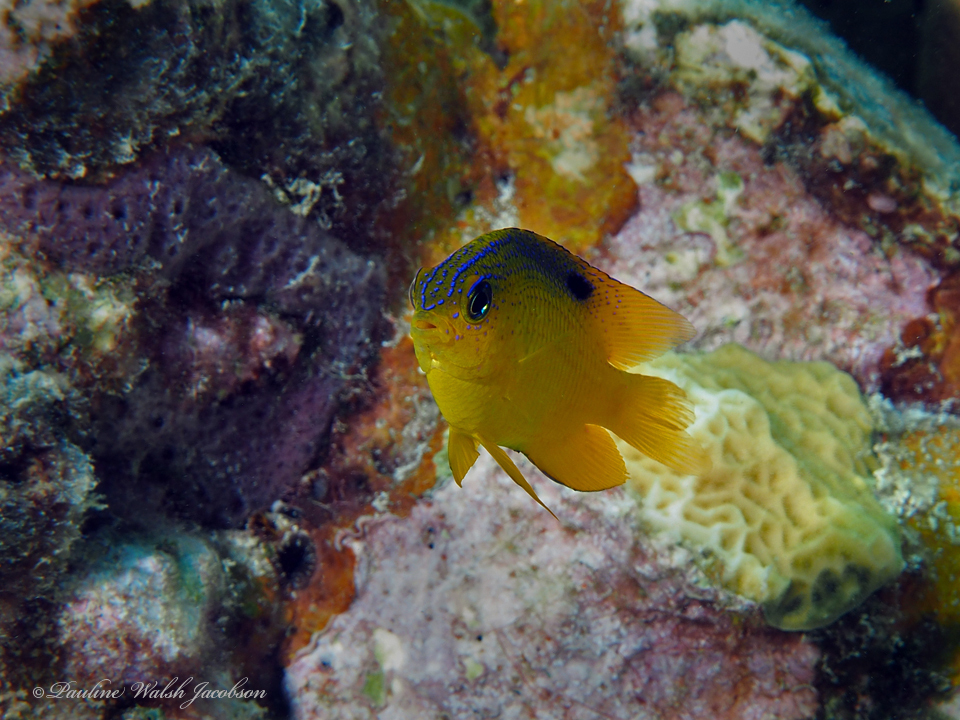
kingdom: Animalia
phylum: Chordata
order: Perciformes
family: Pomacentridae
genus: Stegastes
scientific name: Stegastes diencaeus
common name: Longfin damselfish
